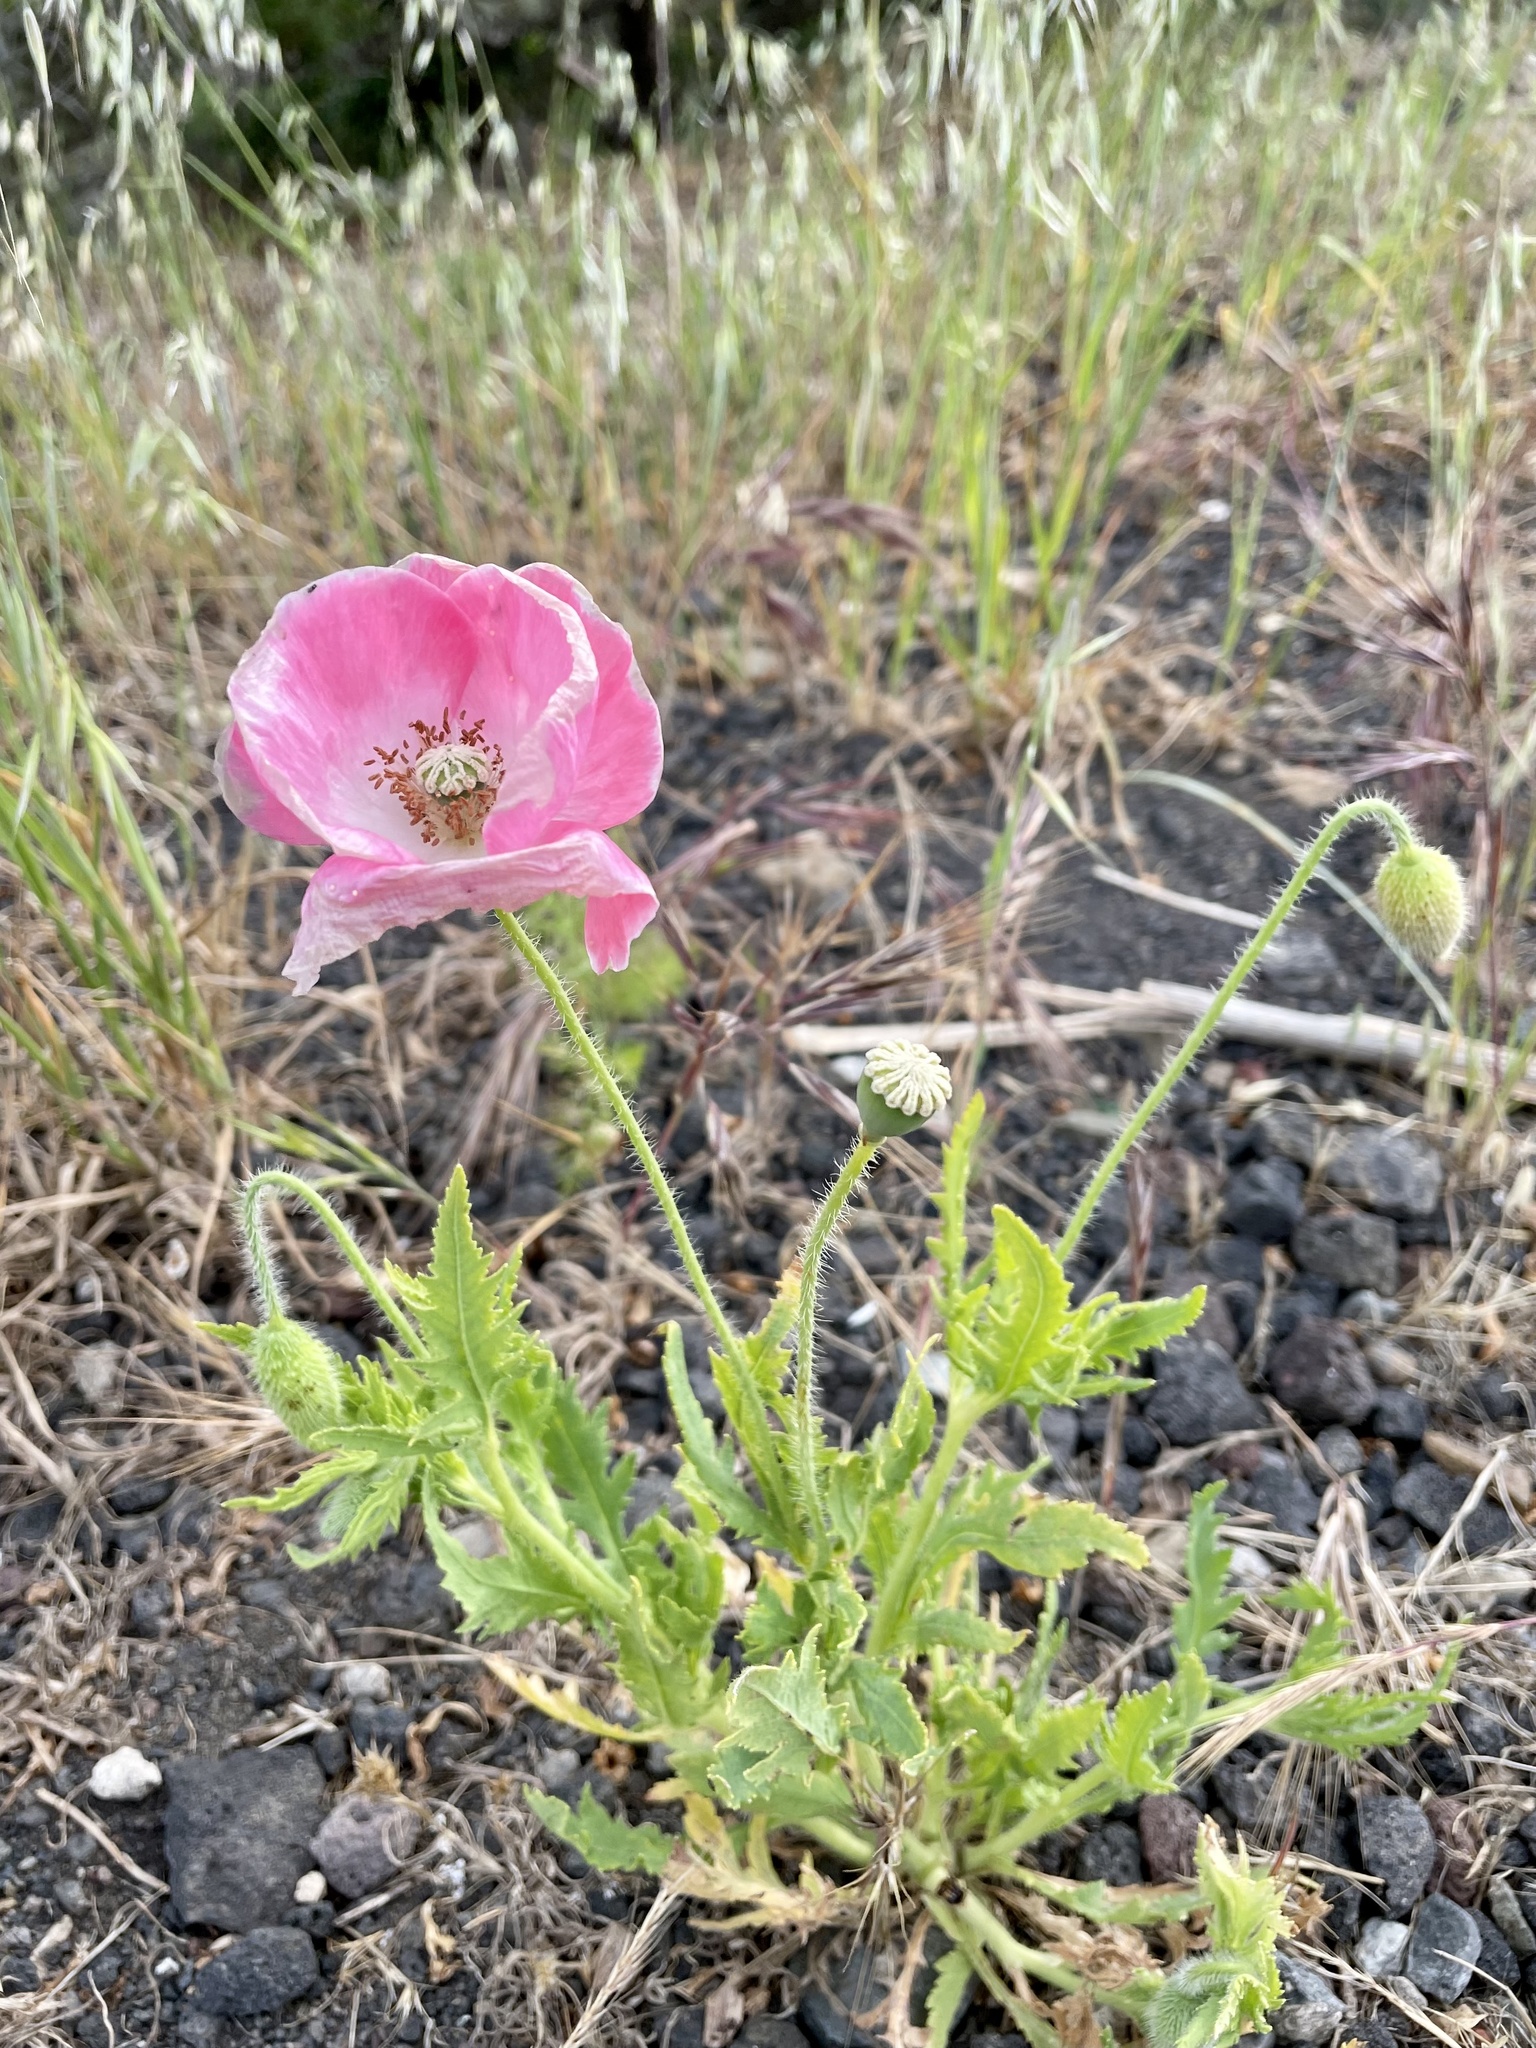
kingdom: Plantae
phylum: Tracheophyta
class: Magnoliopsida
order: Ranunculales
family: Papaveraceae
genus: Papaver
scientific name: Papaver rhoeas
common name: Corn poppy
